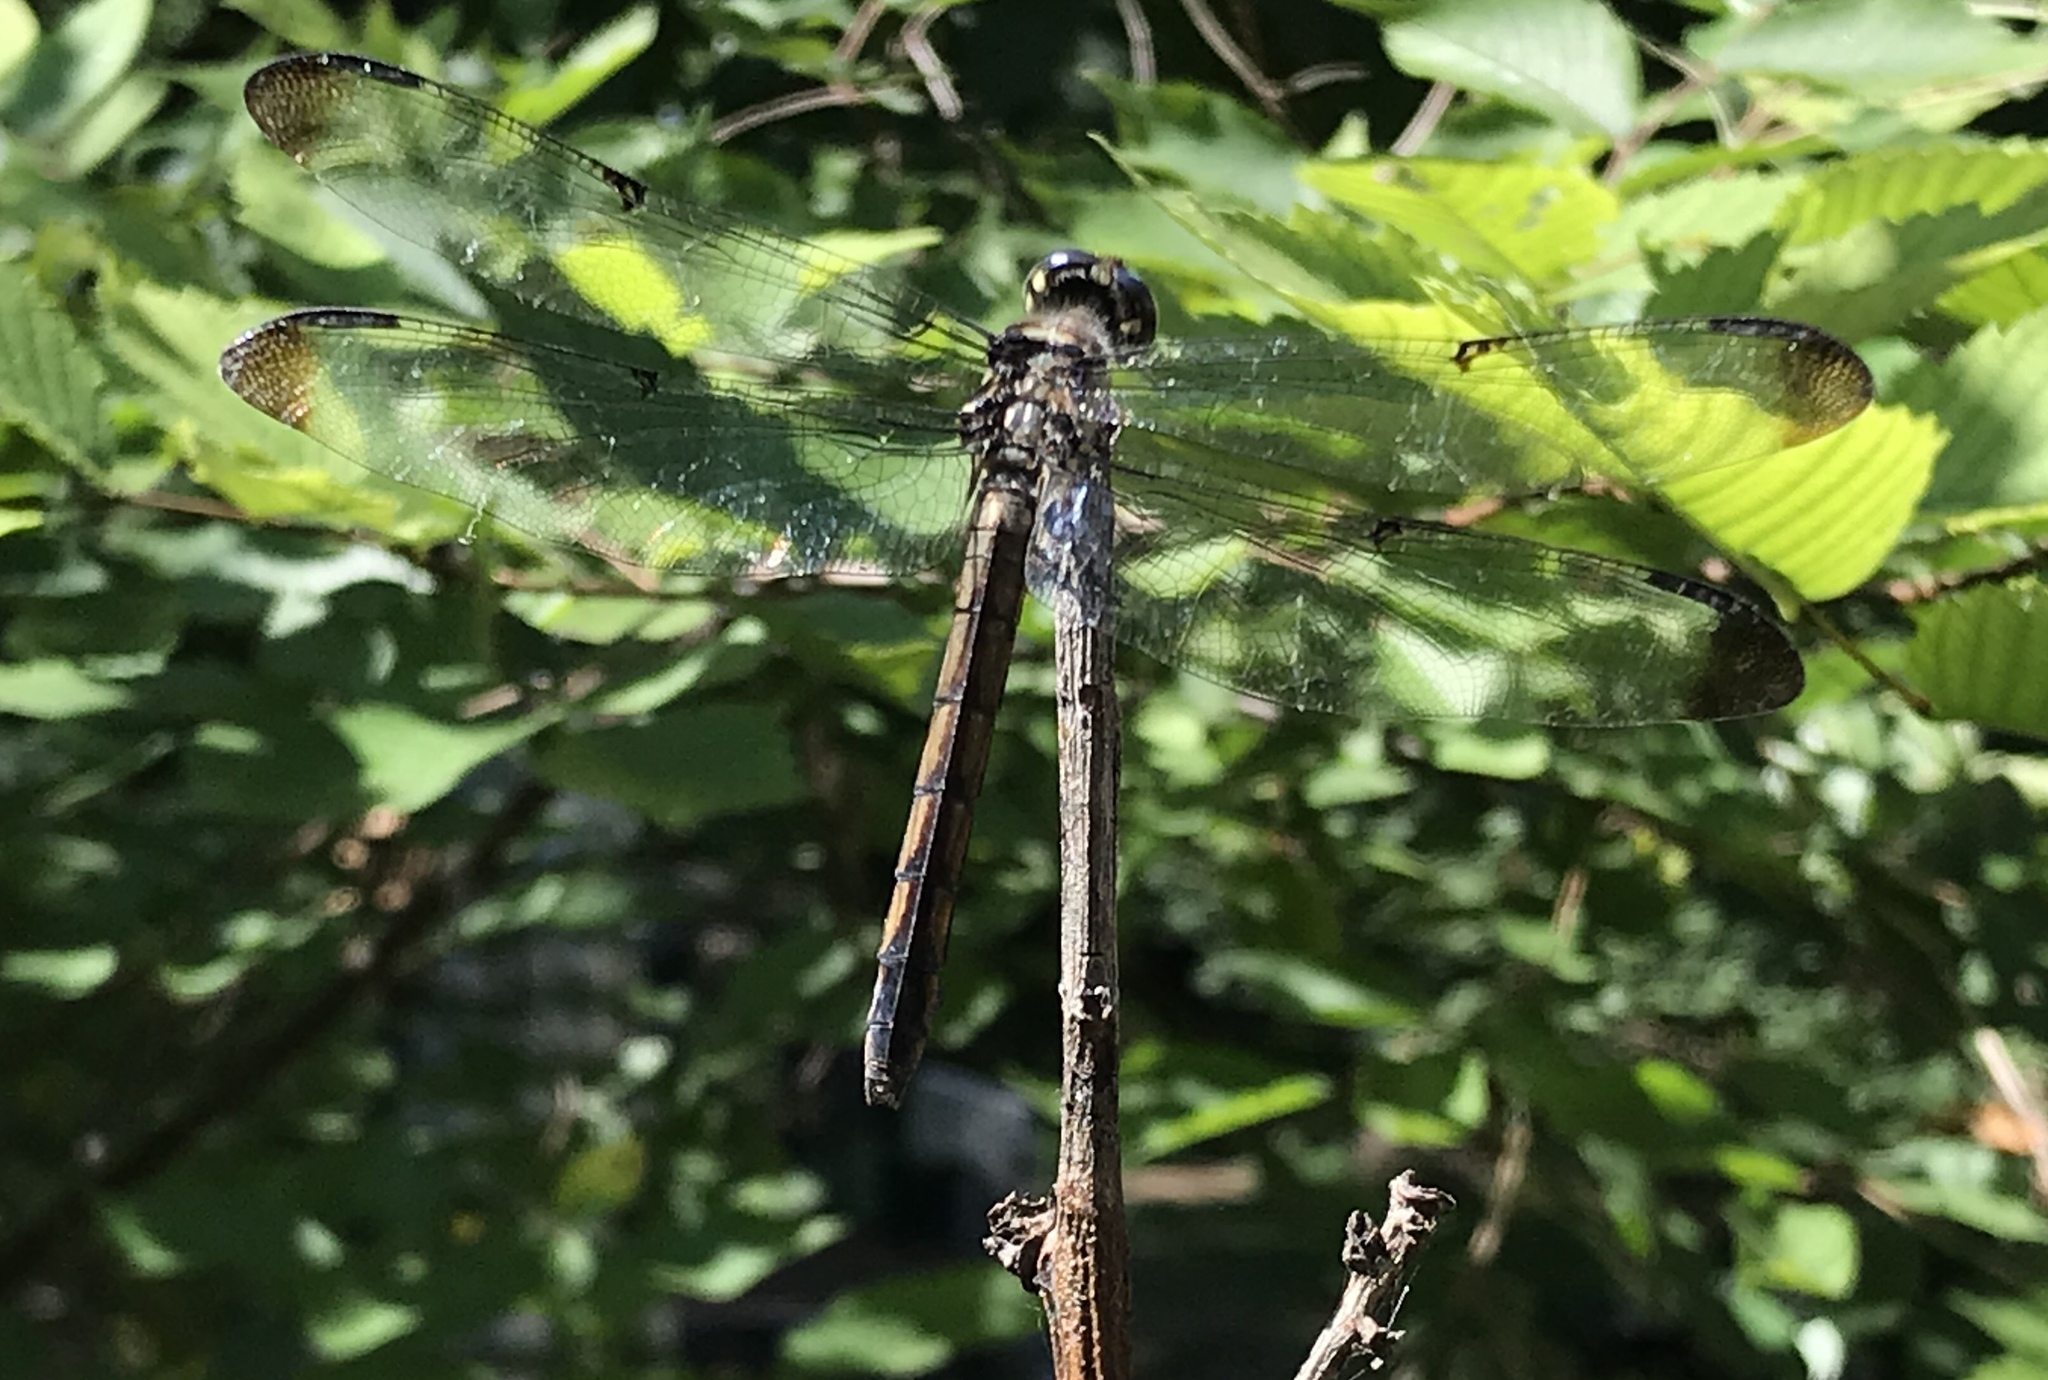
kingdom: Animalia
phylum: Arthropoda
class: Insecta
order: Odonata
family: Libellulidae
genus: Libellula
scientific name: Libellula vibrans
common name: Great blue skimmer
